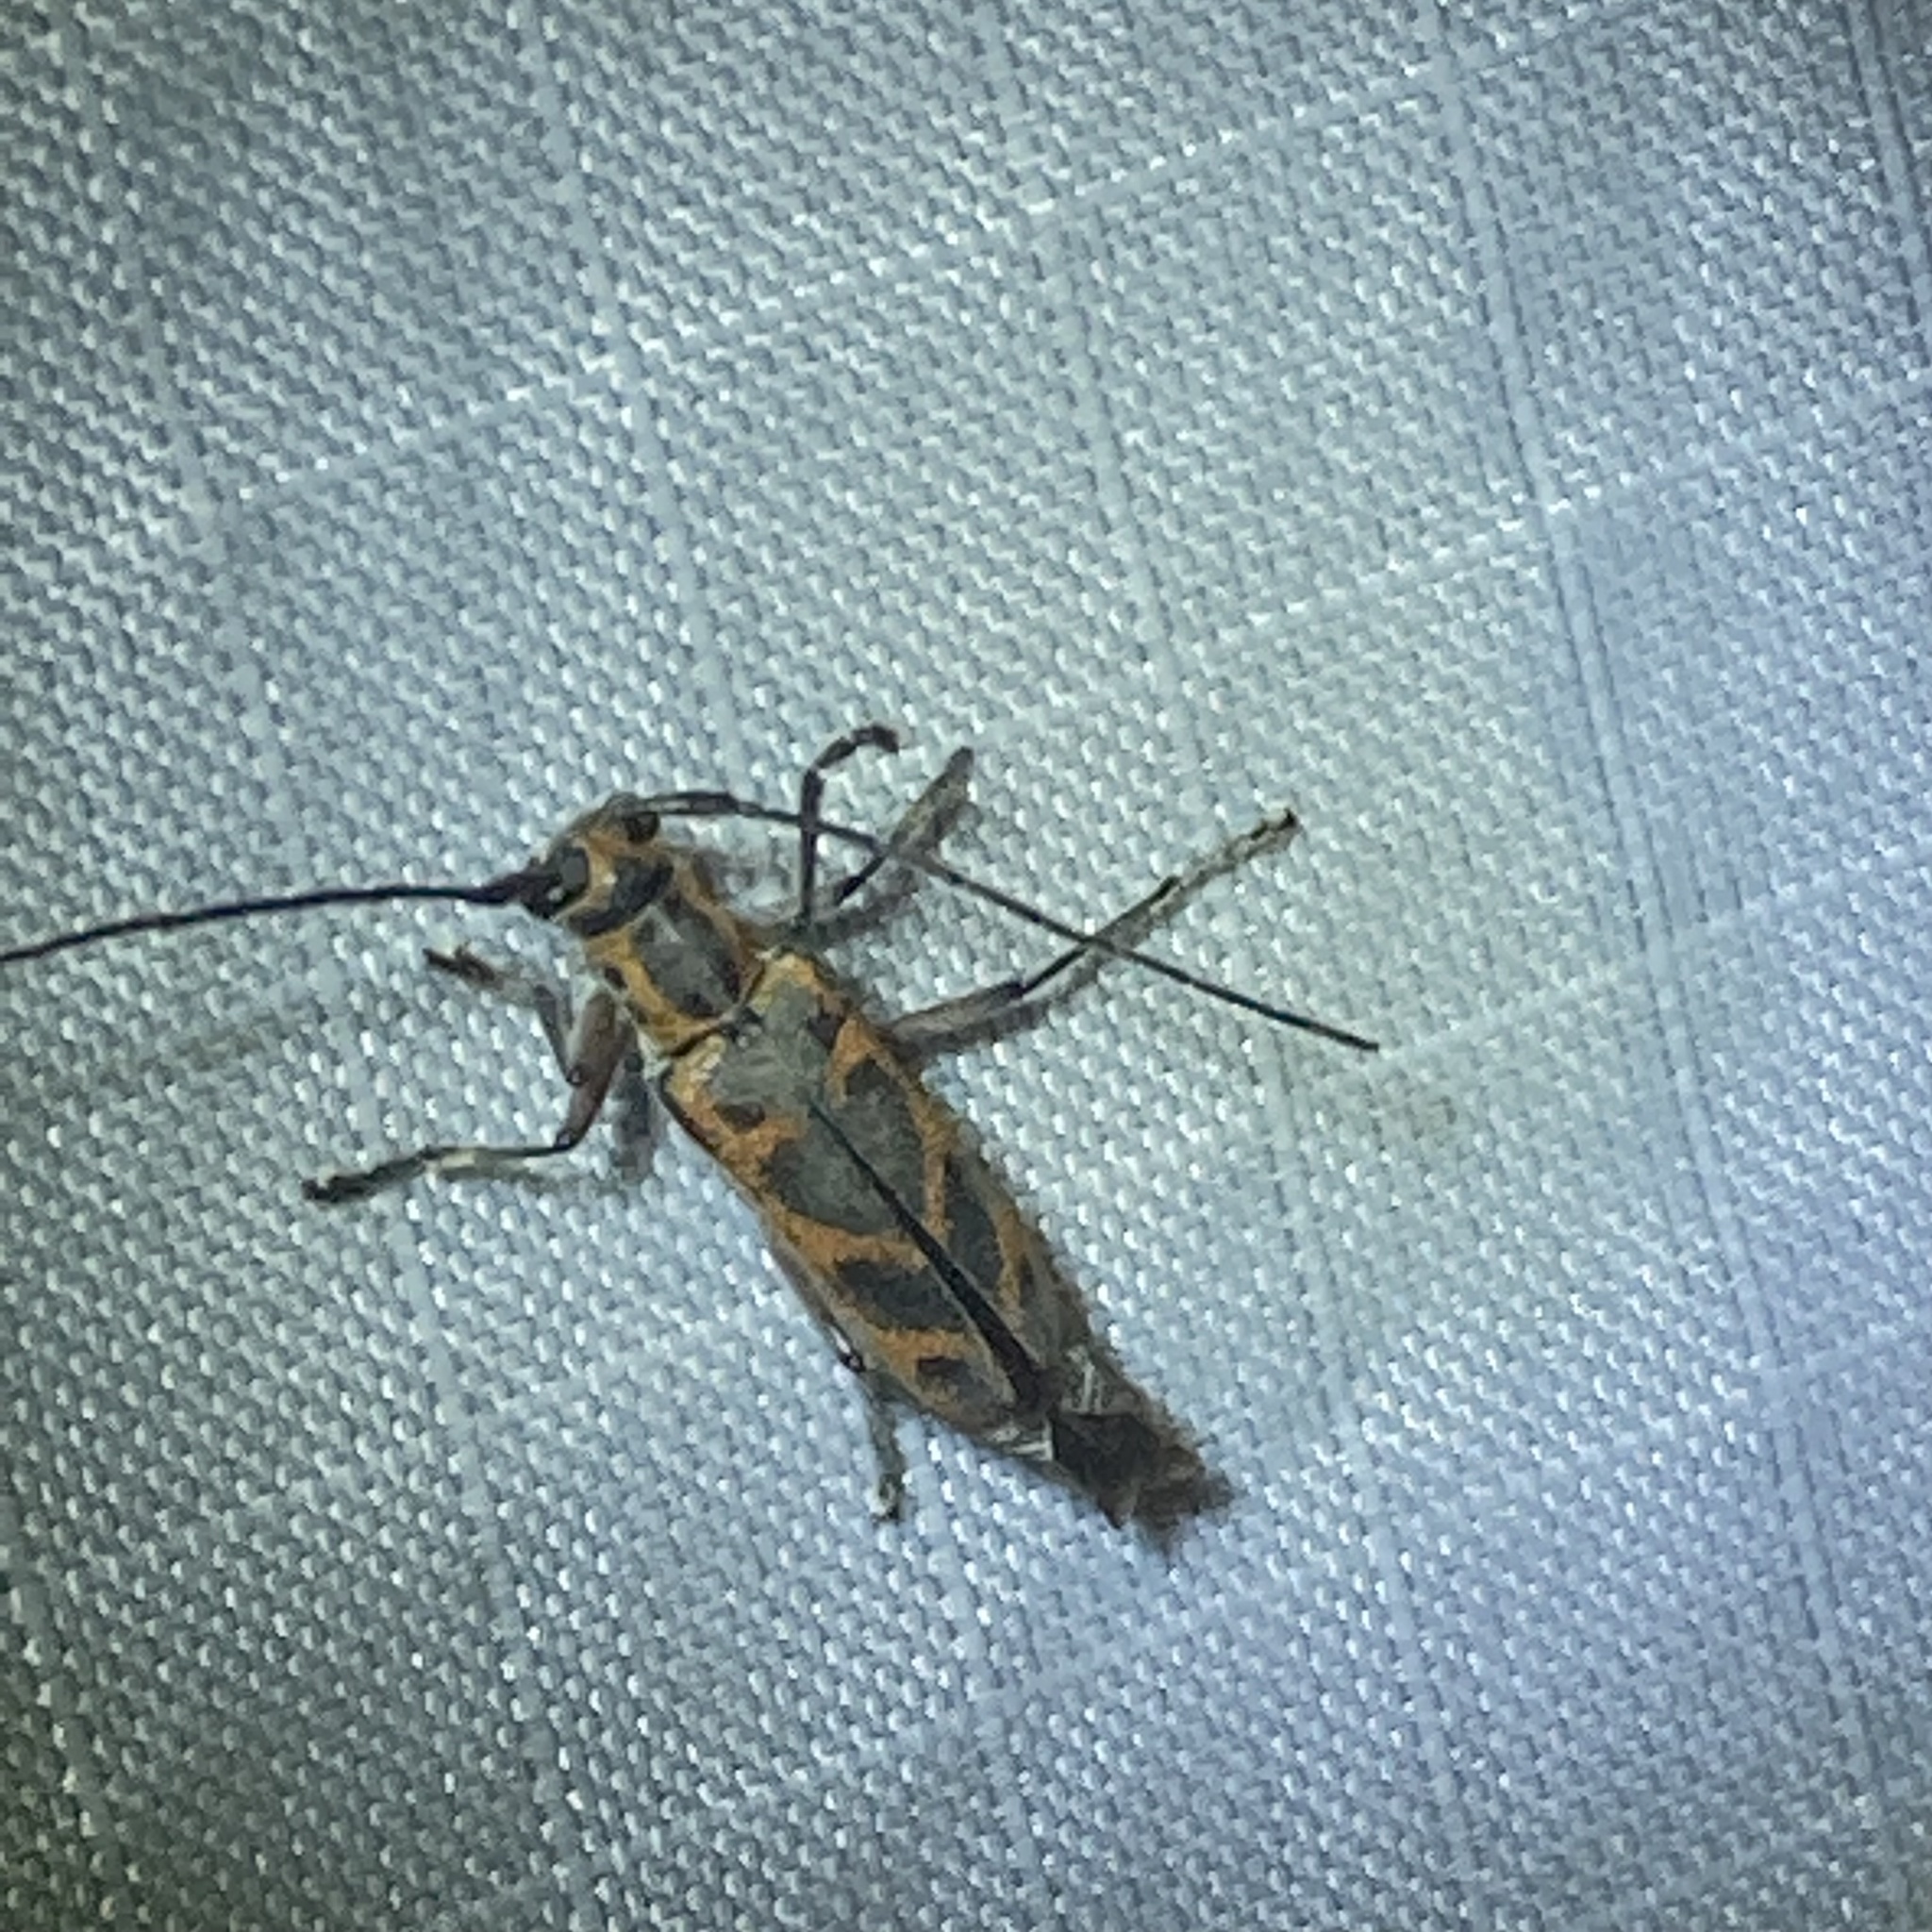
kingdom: Animalia
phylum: Arthropoda
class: Insecta
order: Coleoptera
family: Cerambycidae
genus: Saperda
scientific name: Saperda tridentata
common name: Elm borer
